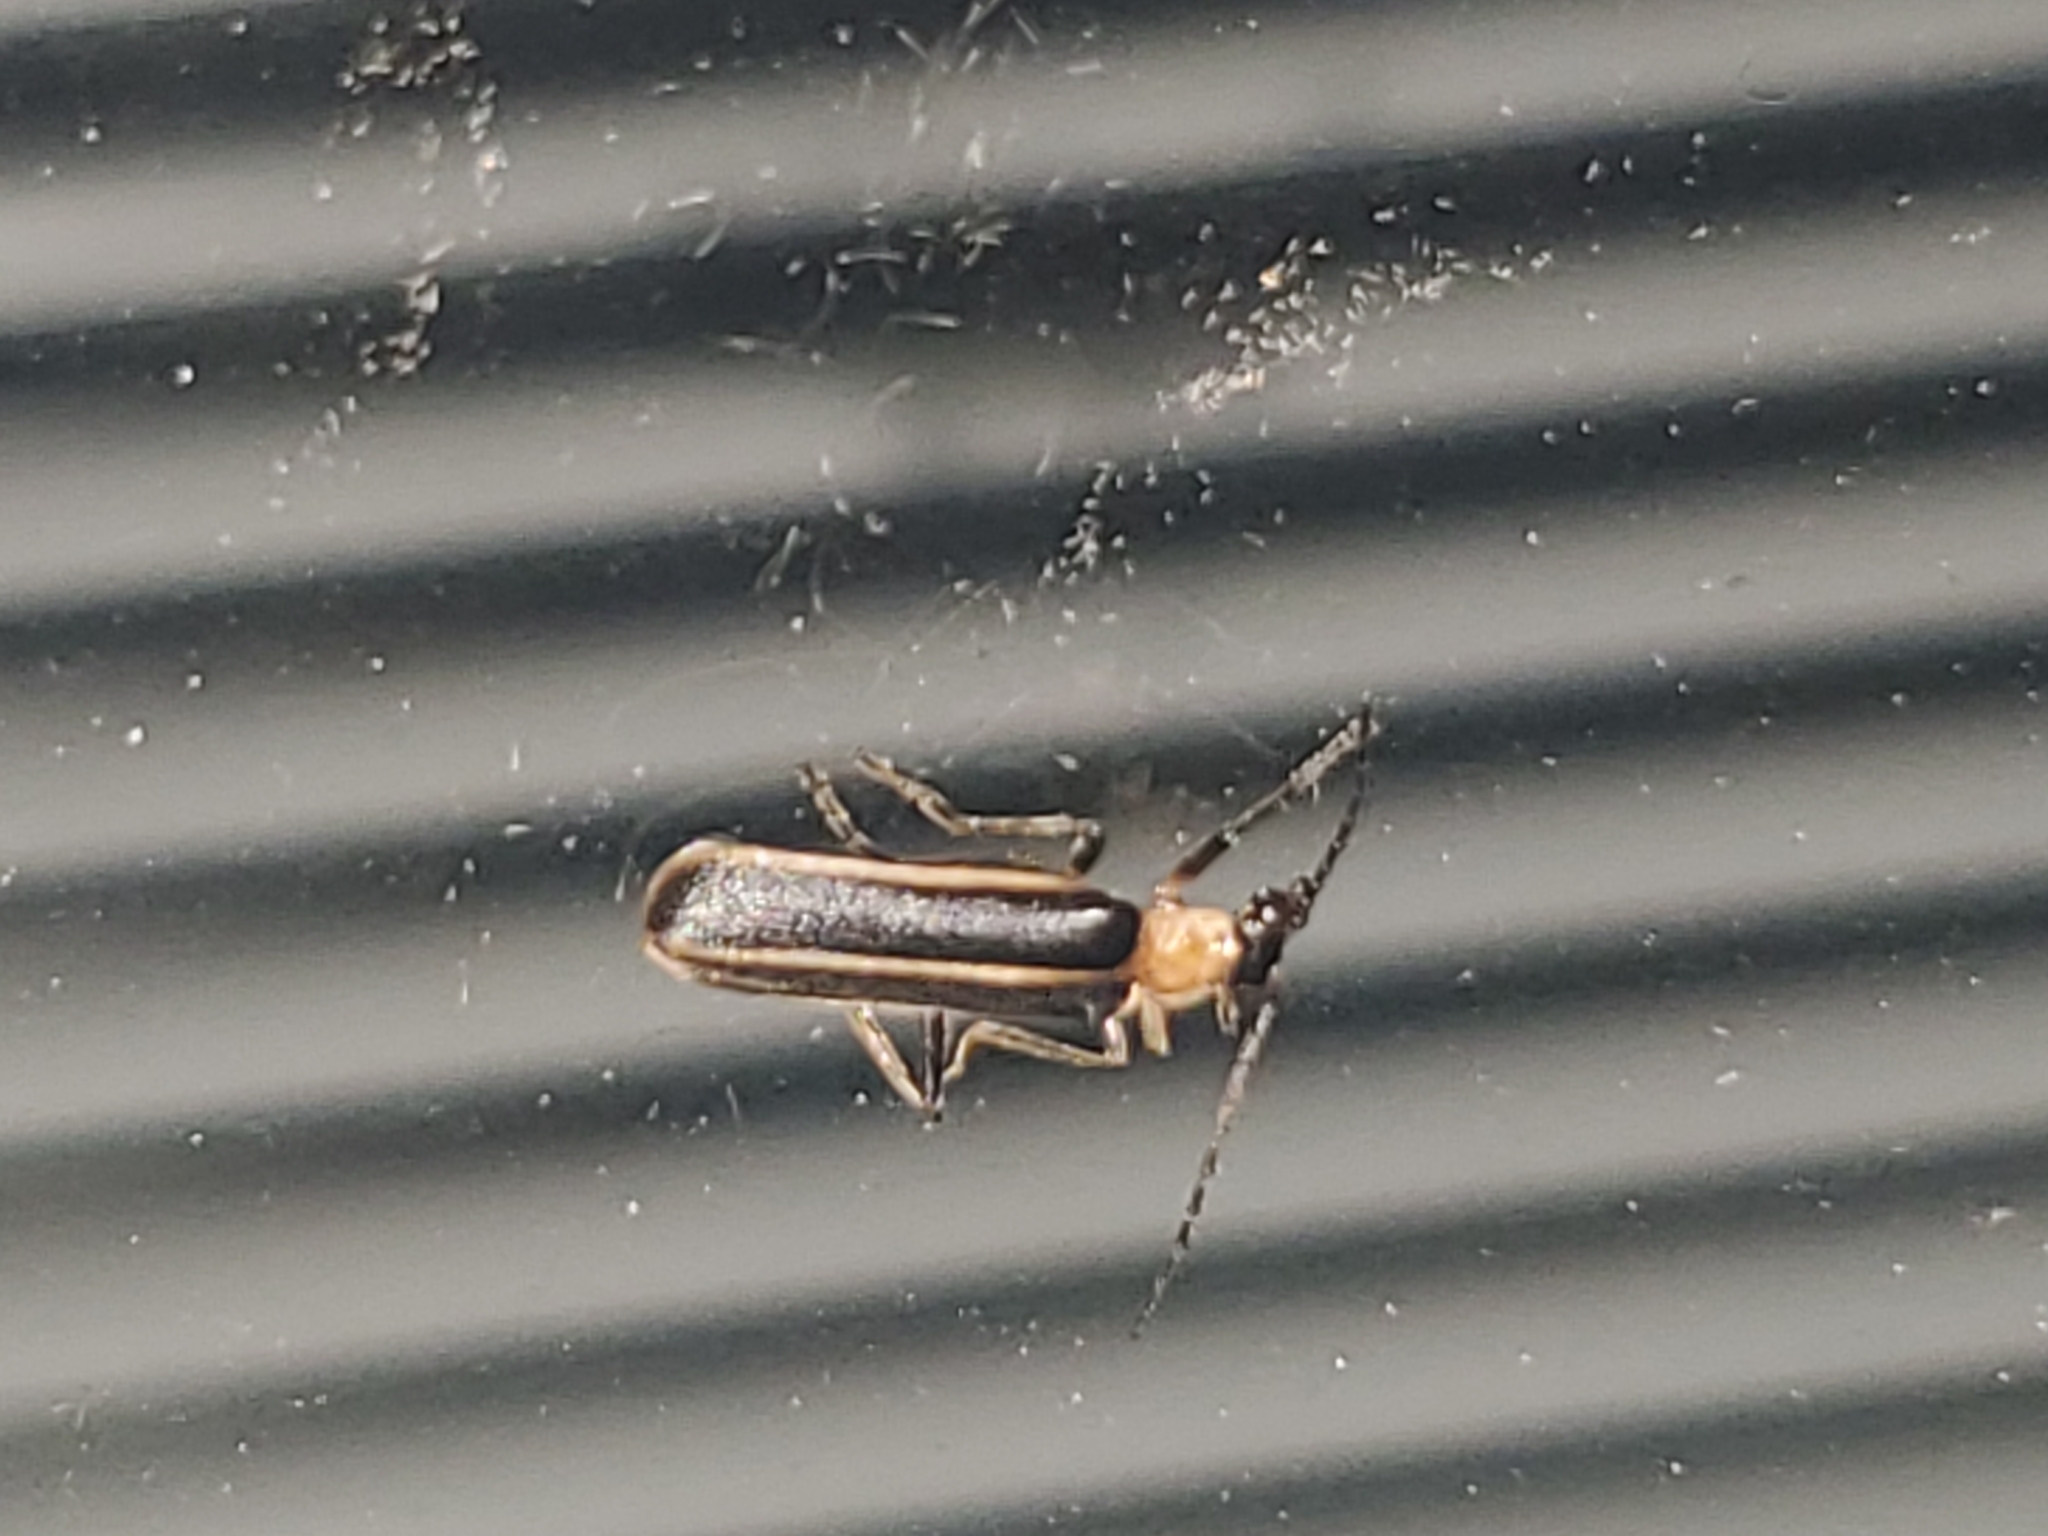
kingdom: Animalia
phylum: Arthropoda
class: Insecta
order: Coleoptera
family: Cantharidae
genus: Podabrus
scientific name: Podabrus flavicollis
